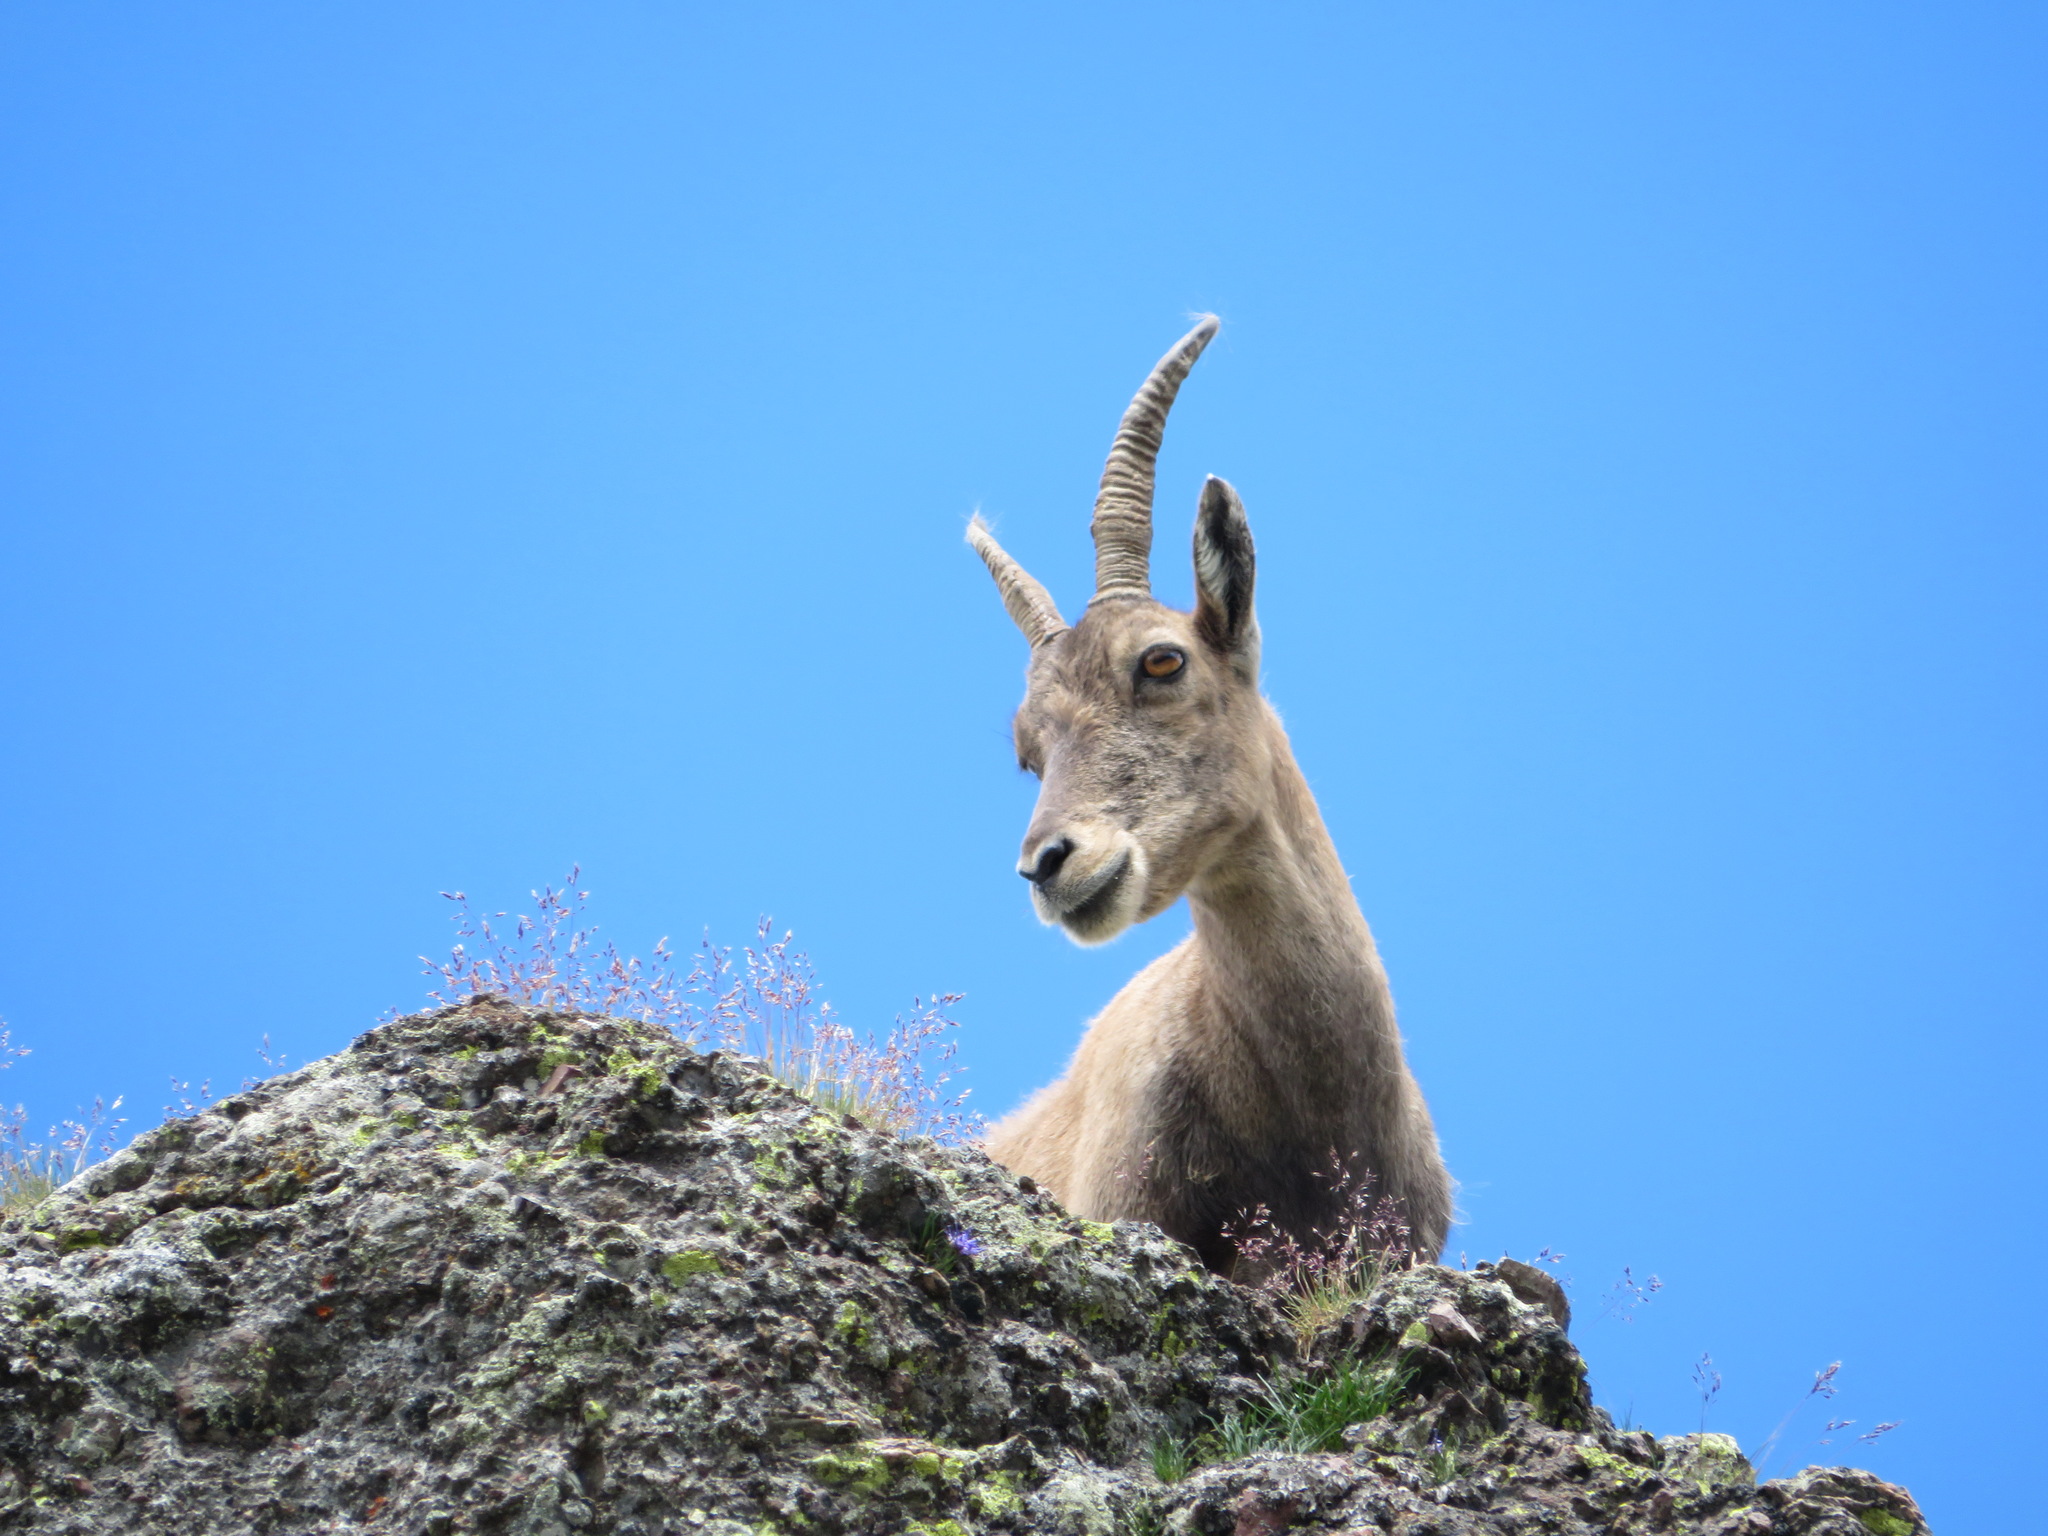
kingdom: Animalia
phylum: Chordata
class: Mammalia
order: Artiodactyla
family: Bovidae
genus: Capra
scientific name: Capra ibex
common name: Alpine ibex
